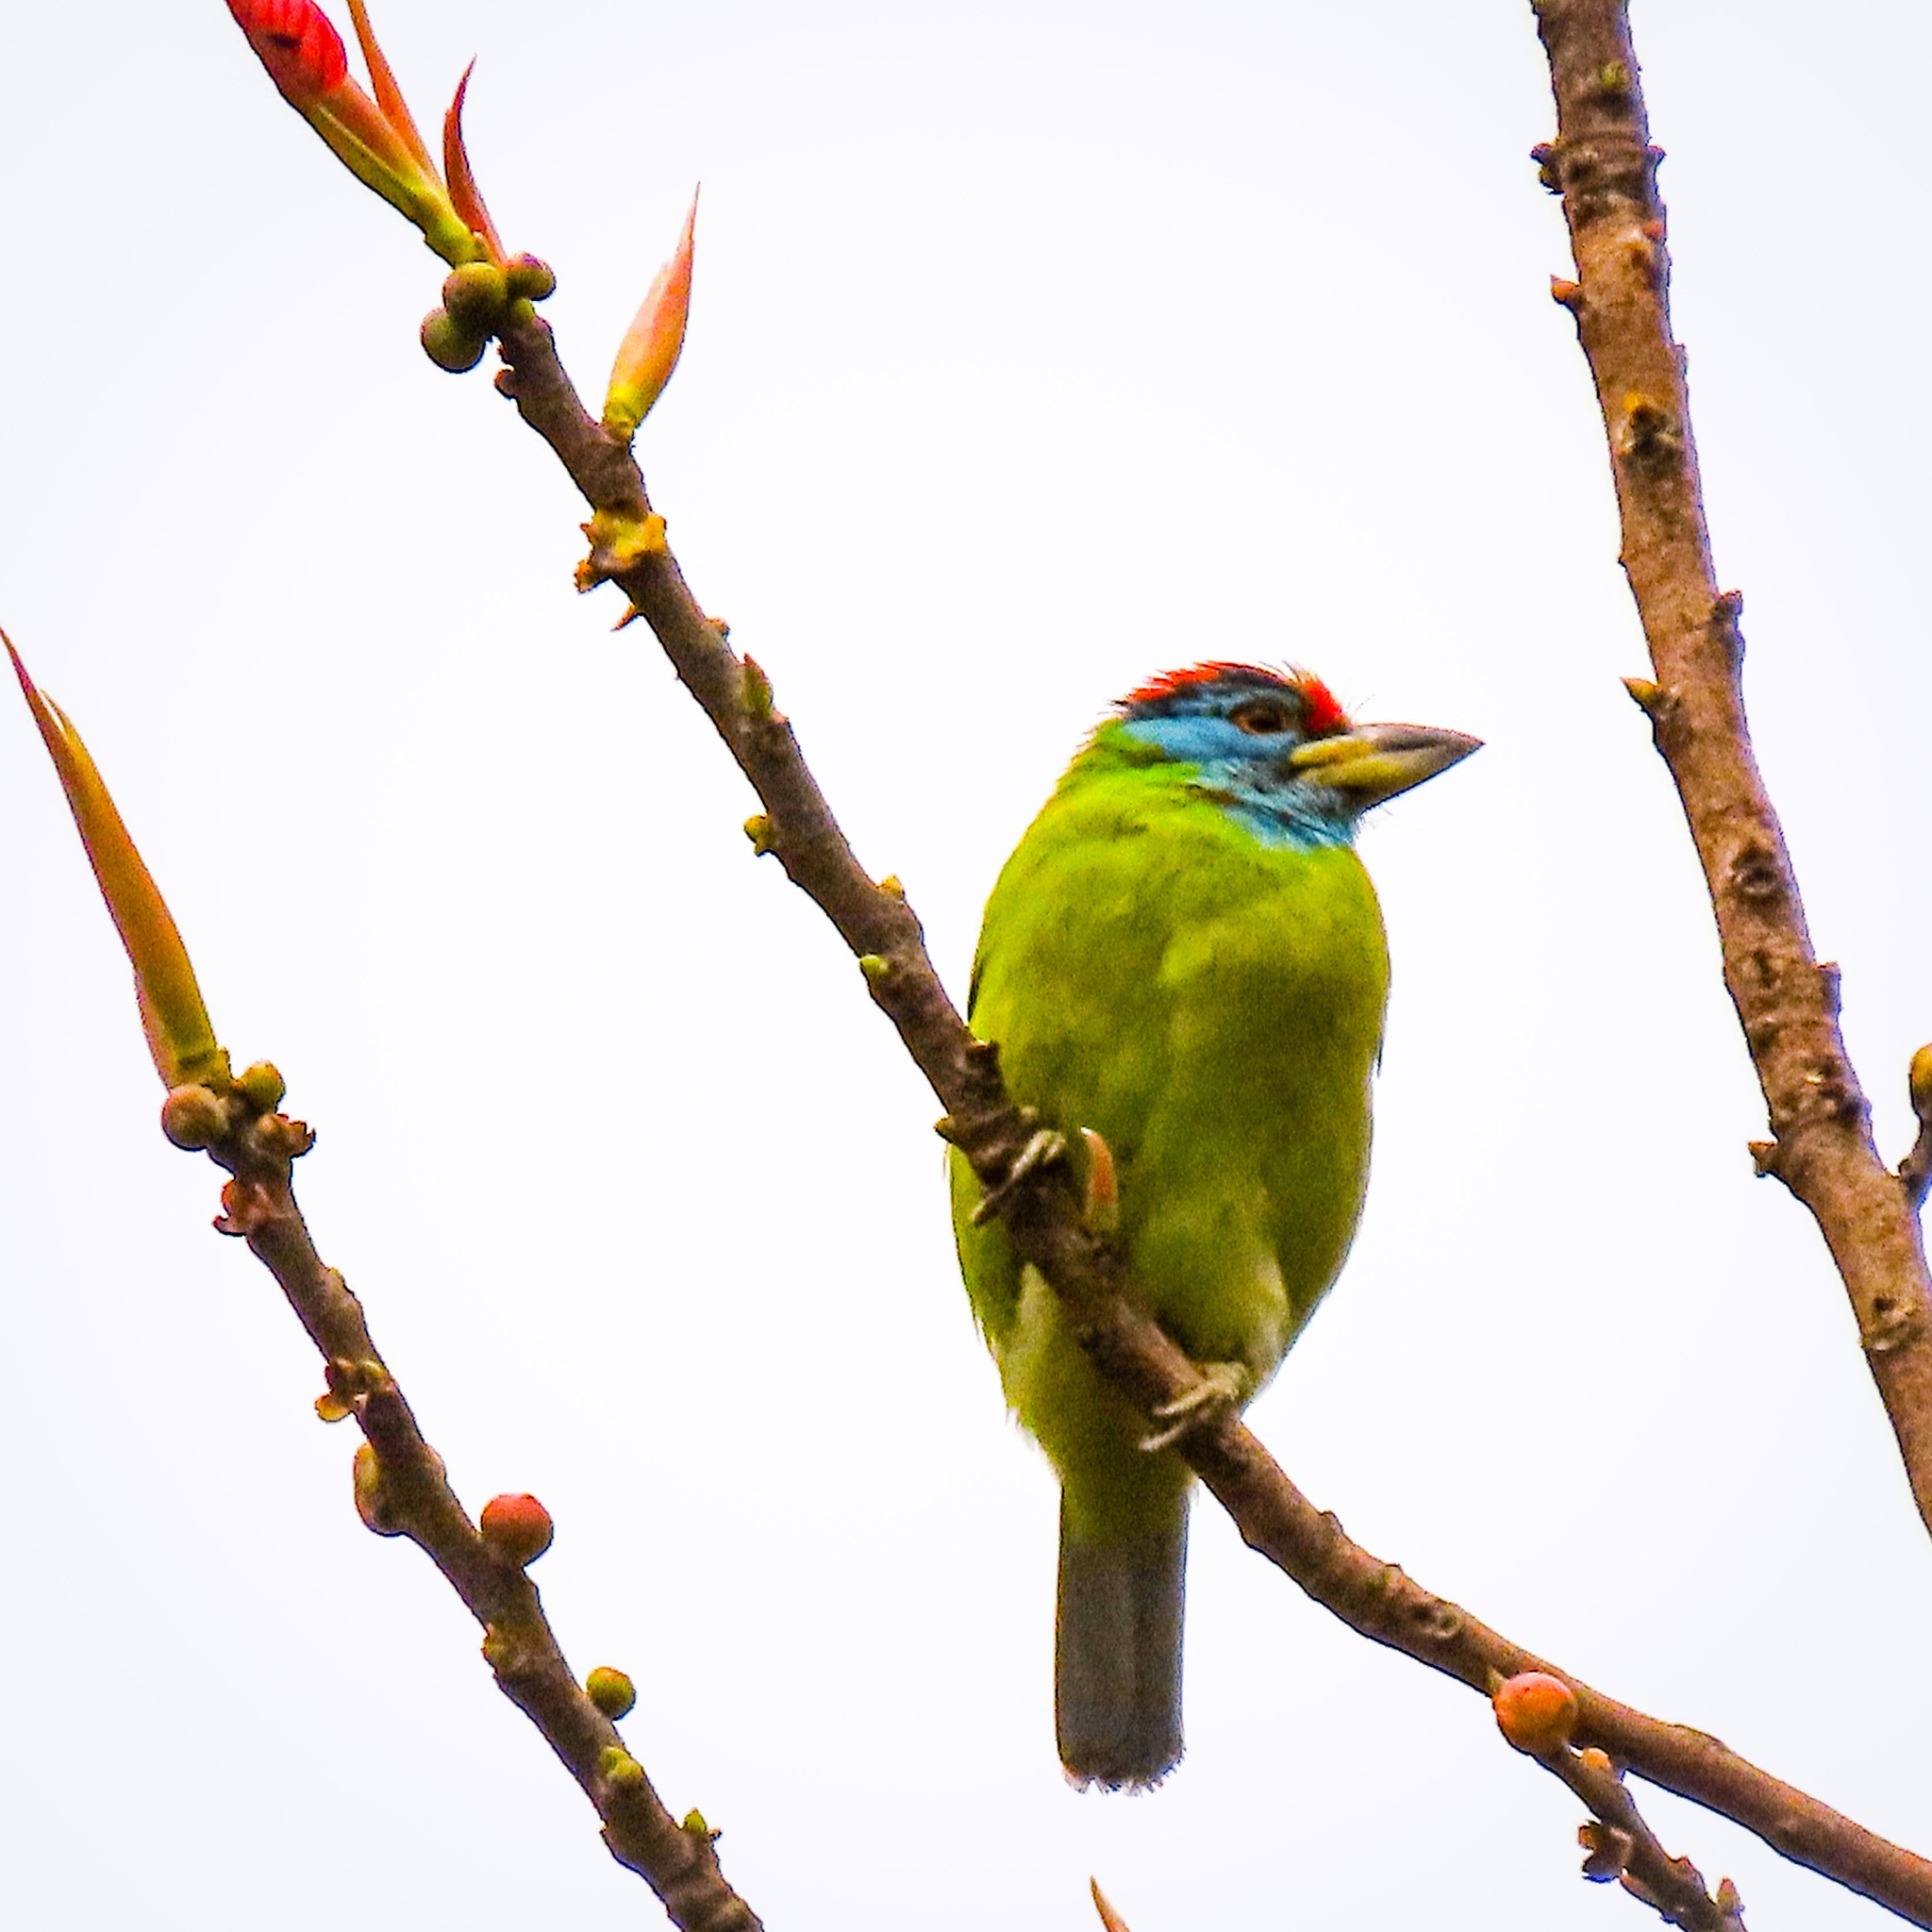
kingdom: Animalia
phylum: Chordata
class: Aves
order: Piciformes
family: Megalaimidae
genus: Psilopogon
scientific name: Psilopogon asiaticus
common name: Blue-throated barbet
